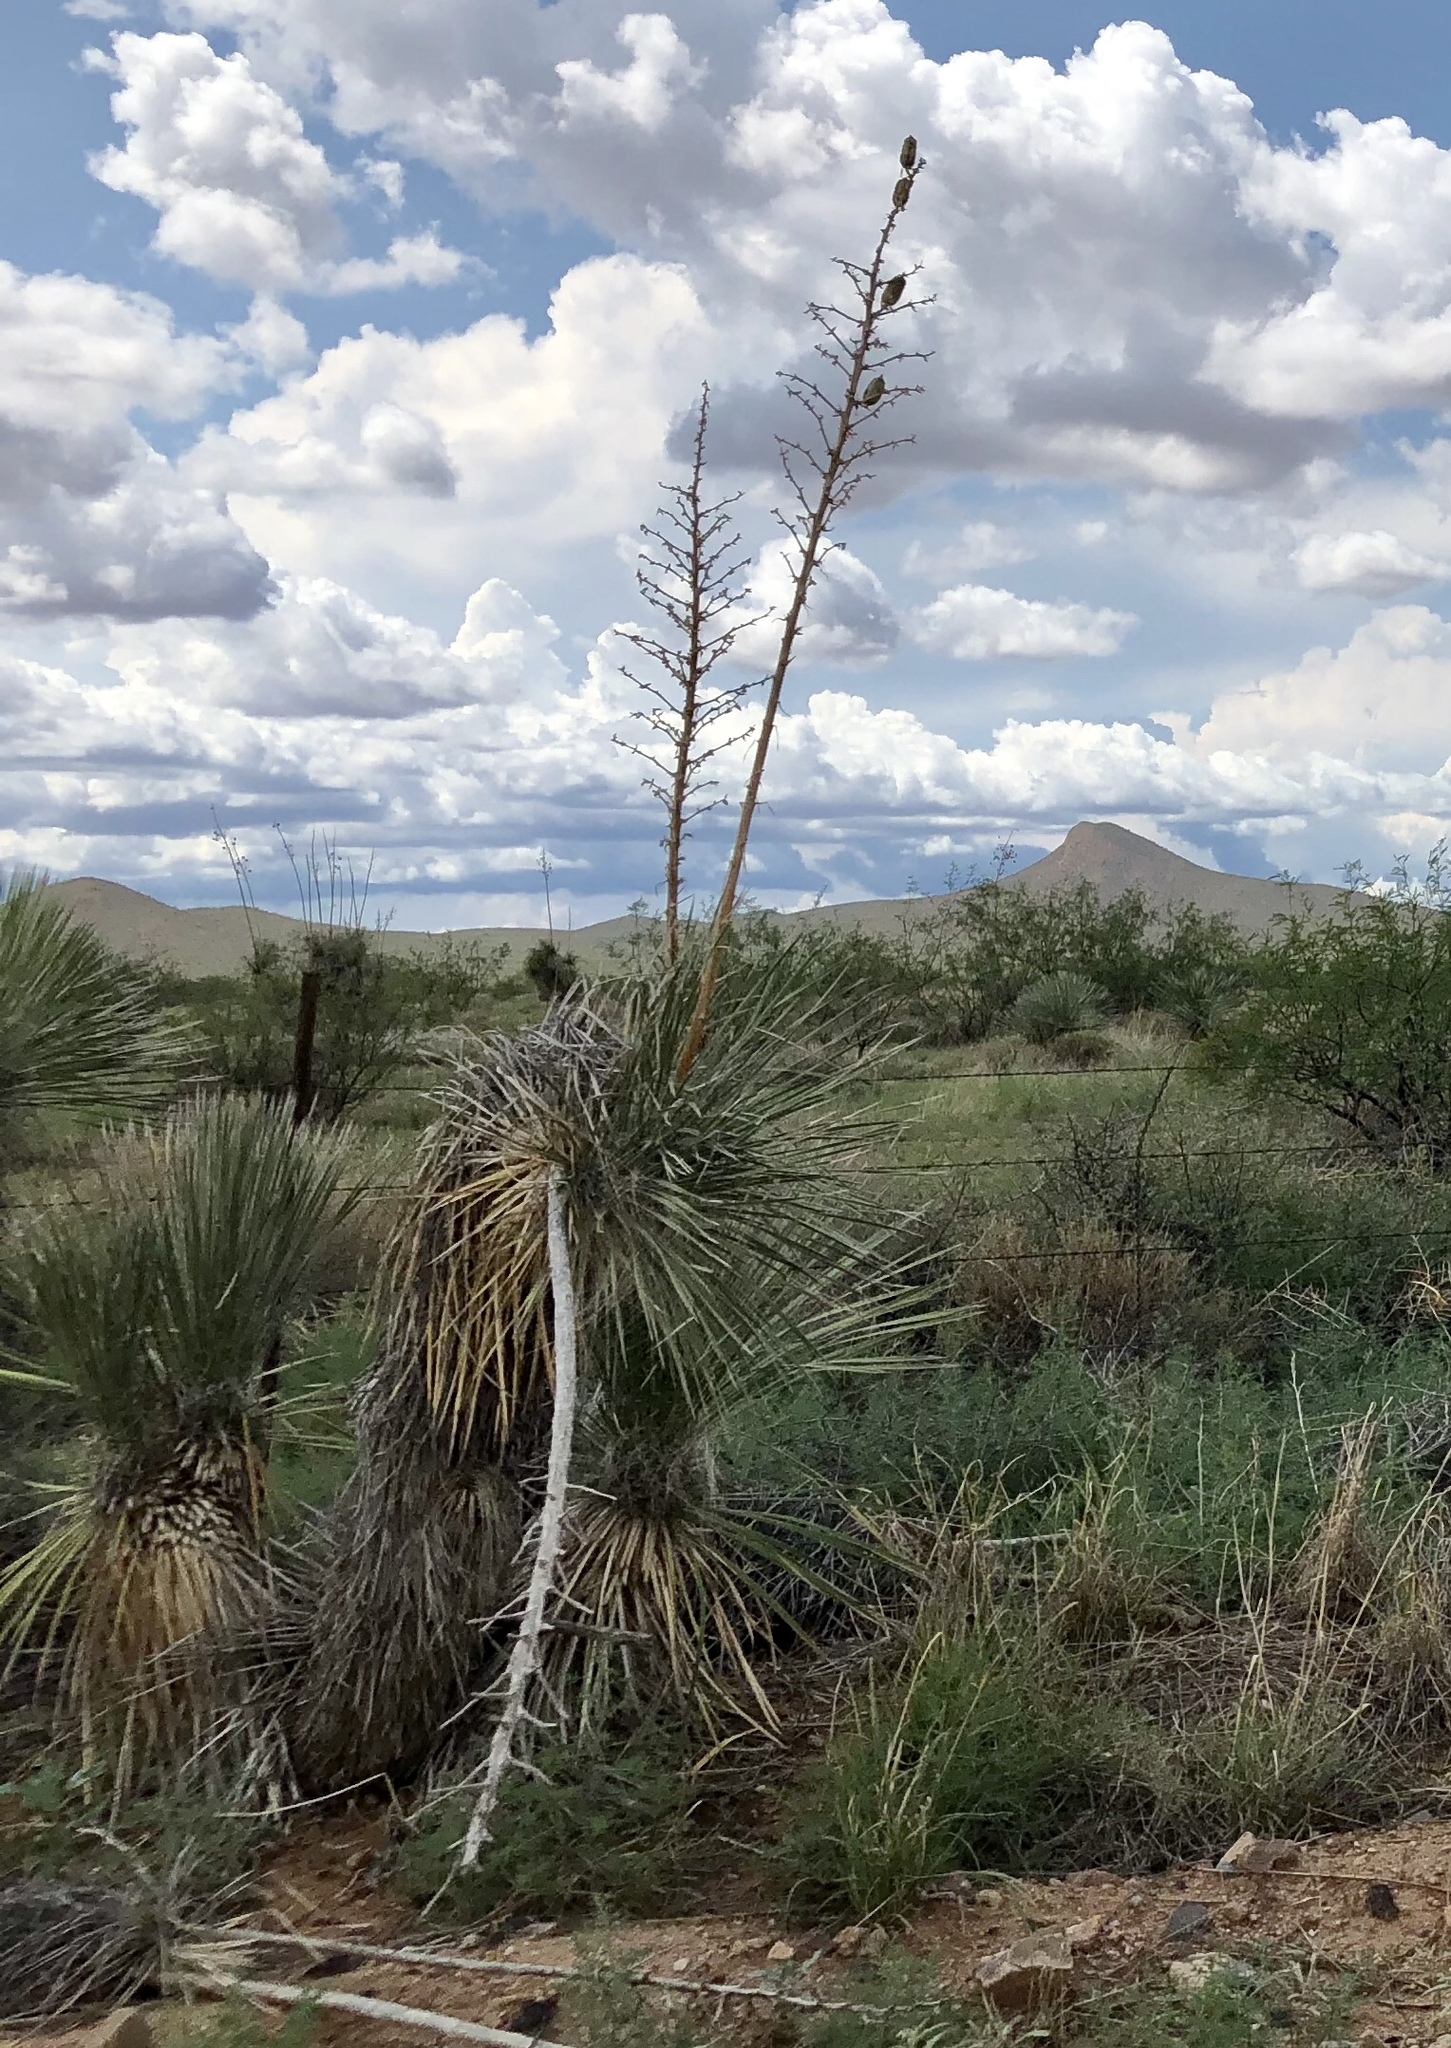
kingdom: Plantae
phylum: Tracheophyta
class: Liliopsida
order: Asparagales
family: Asparagaceae
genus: Yucca
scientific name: Yucca elata
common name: Palmella
